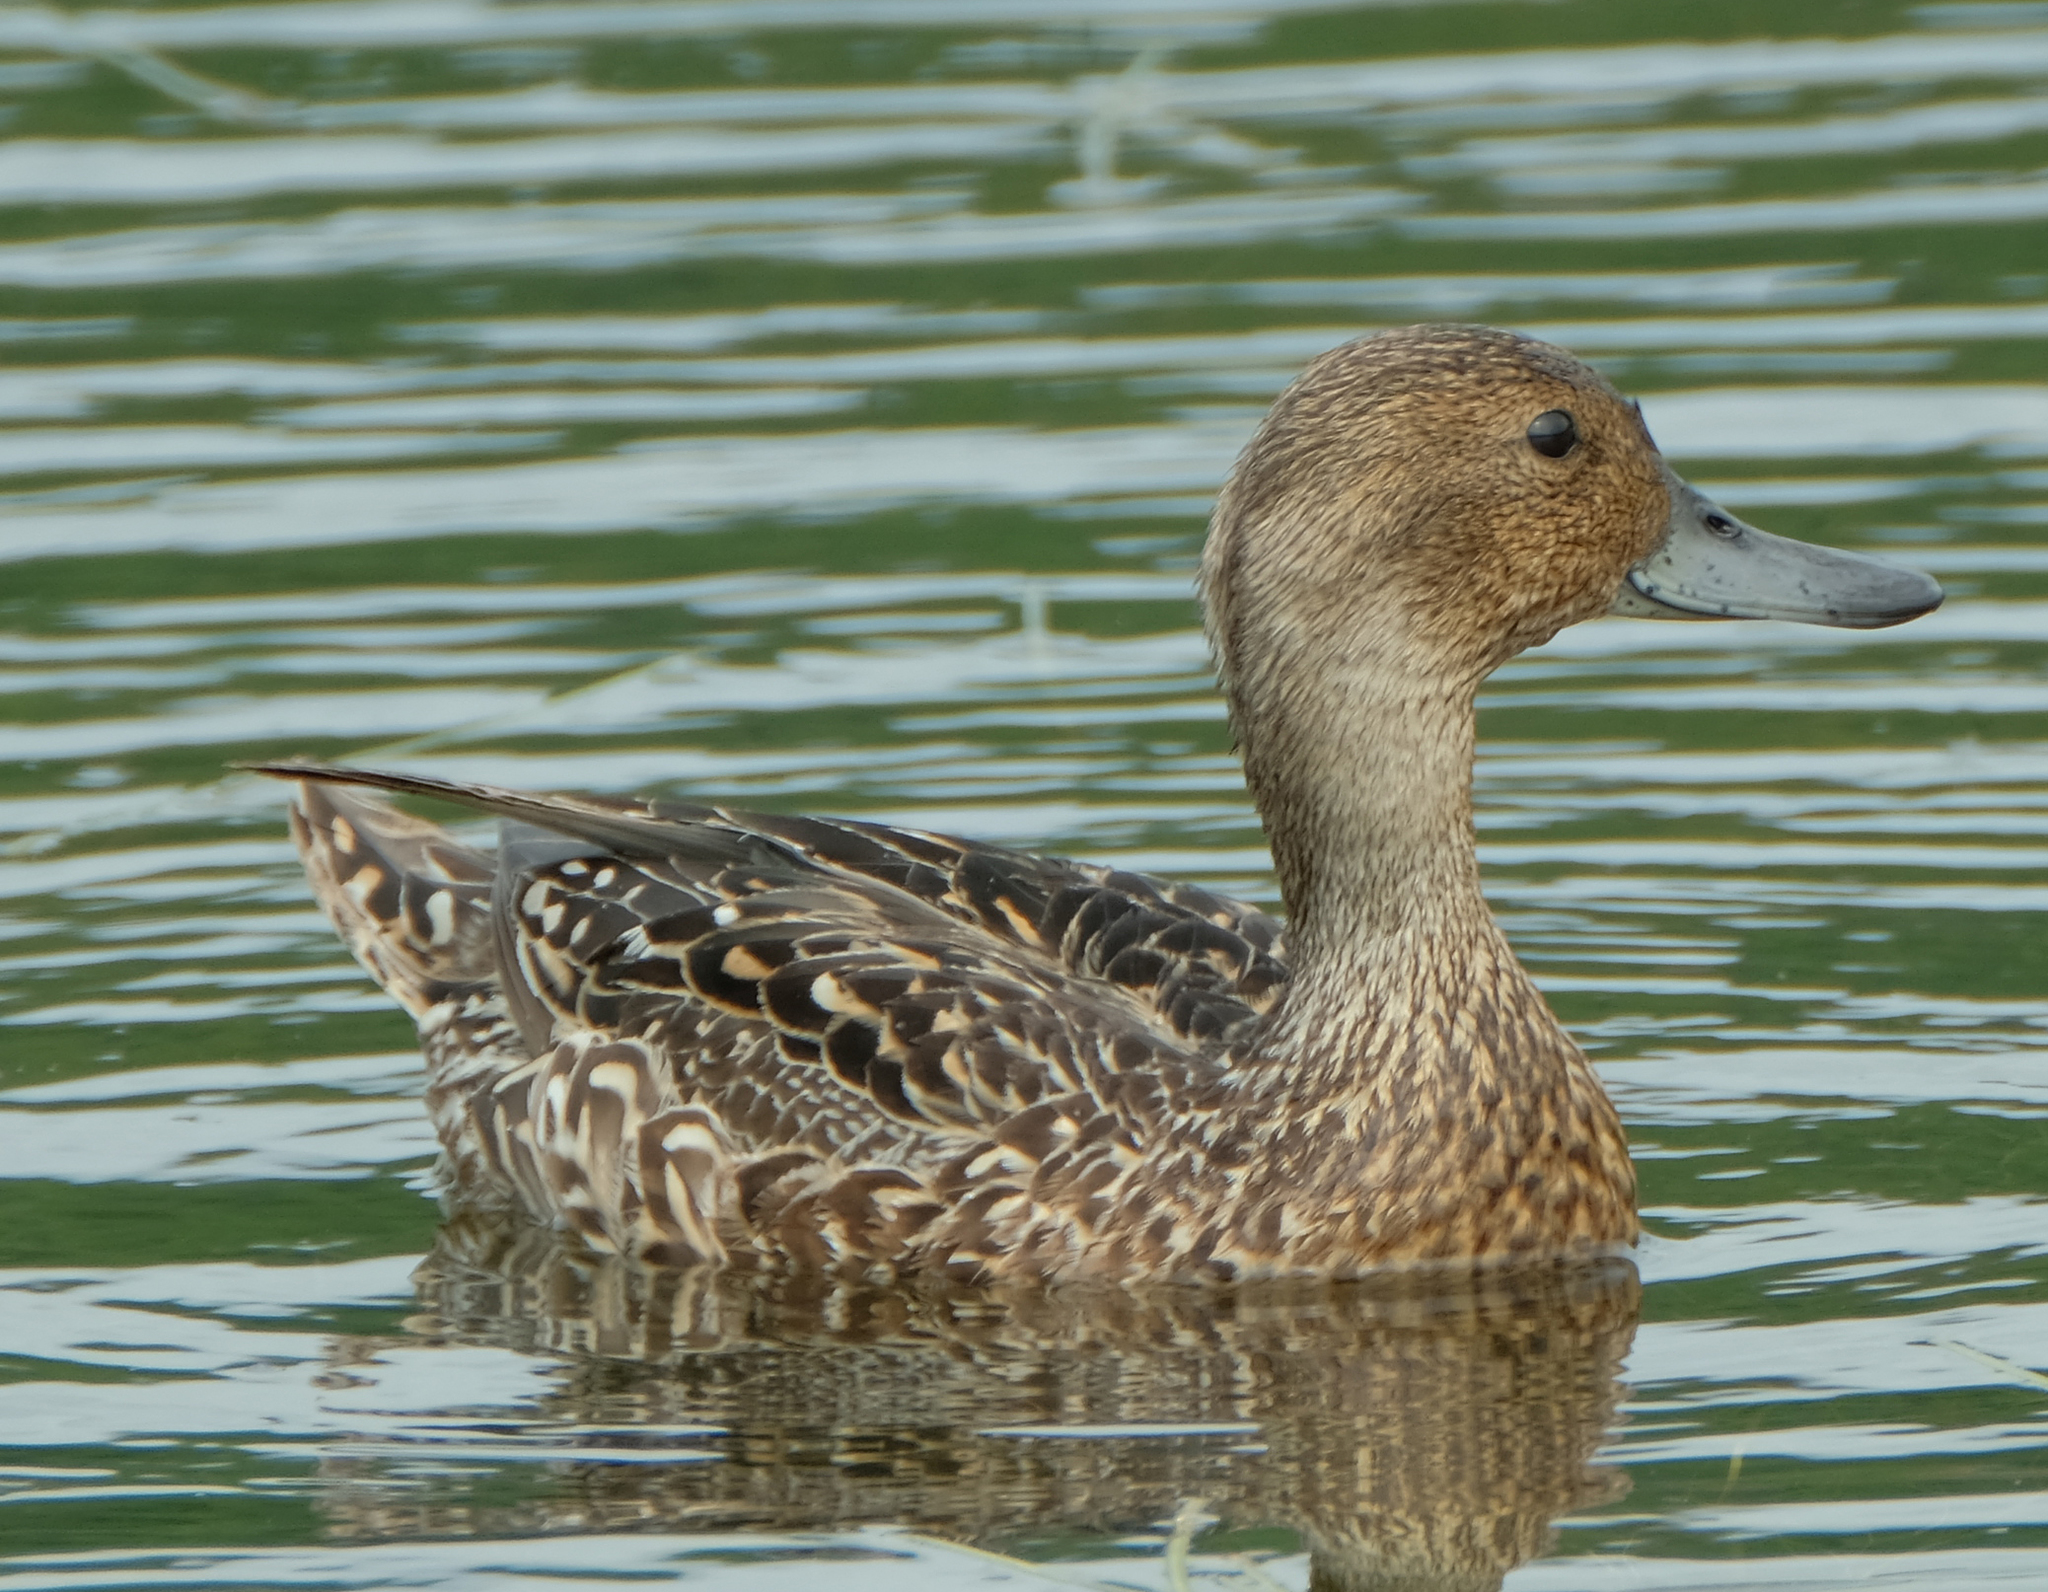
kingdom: Animalia
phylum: Chordata
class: Aves
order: Anseriformes
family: Anatidae
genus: Anas
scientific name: Anas acuta
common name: Northern pintail
